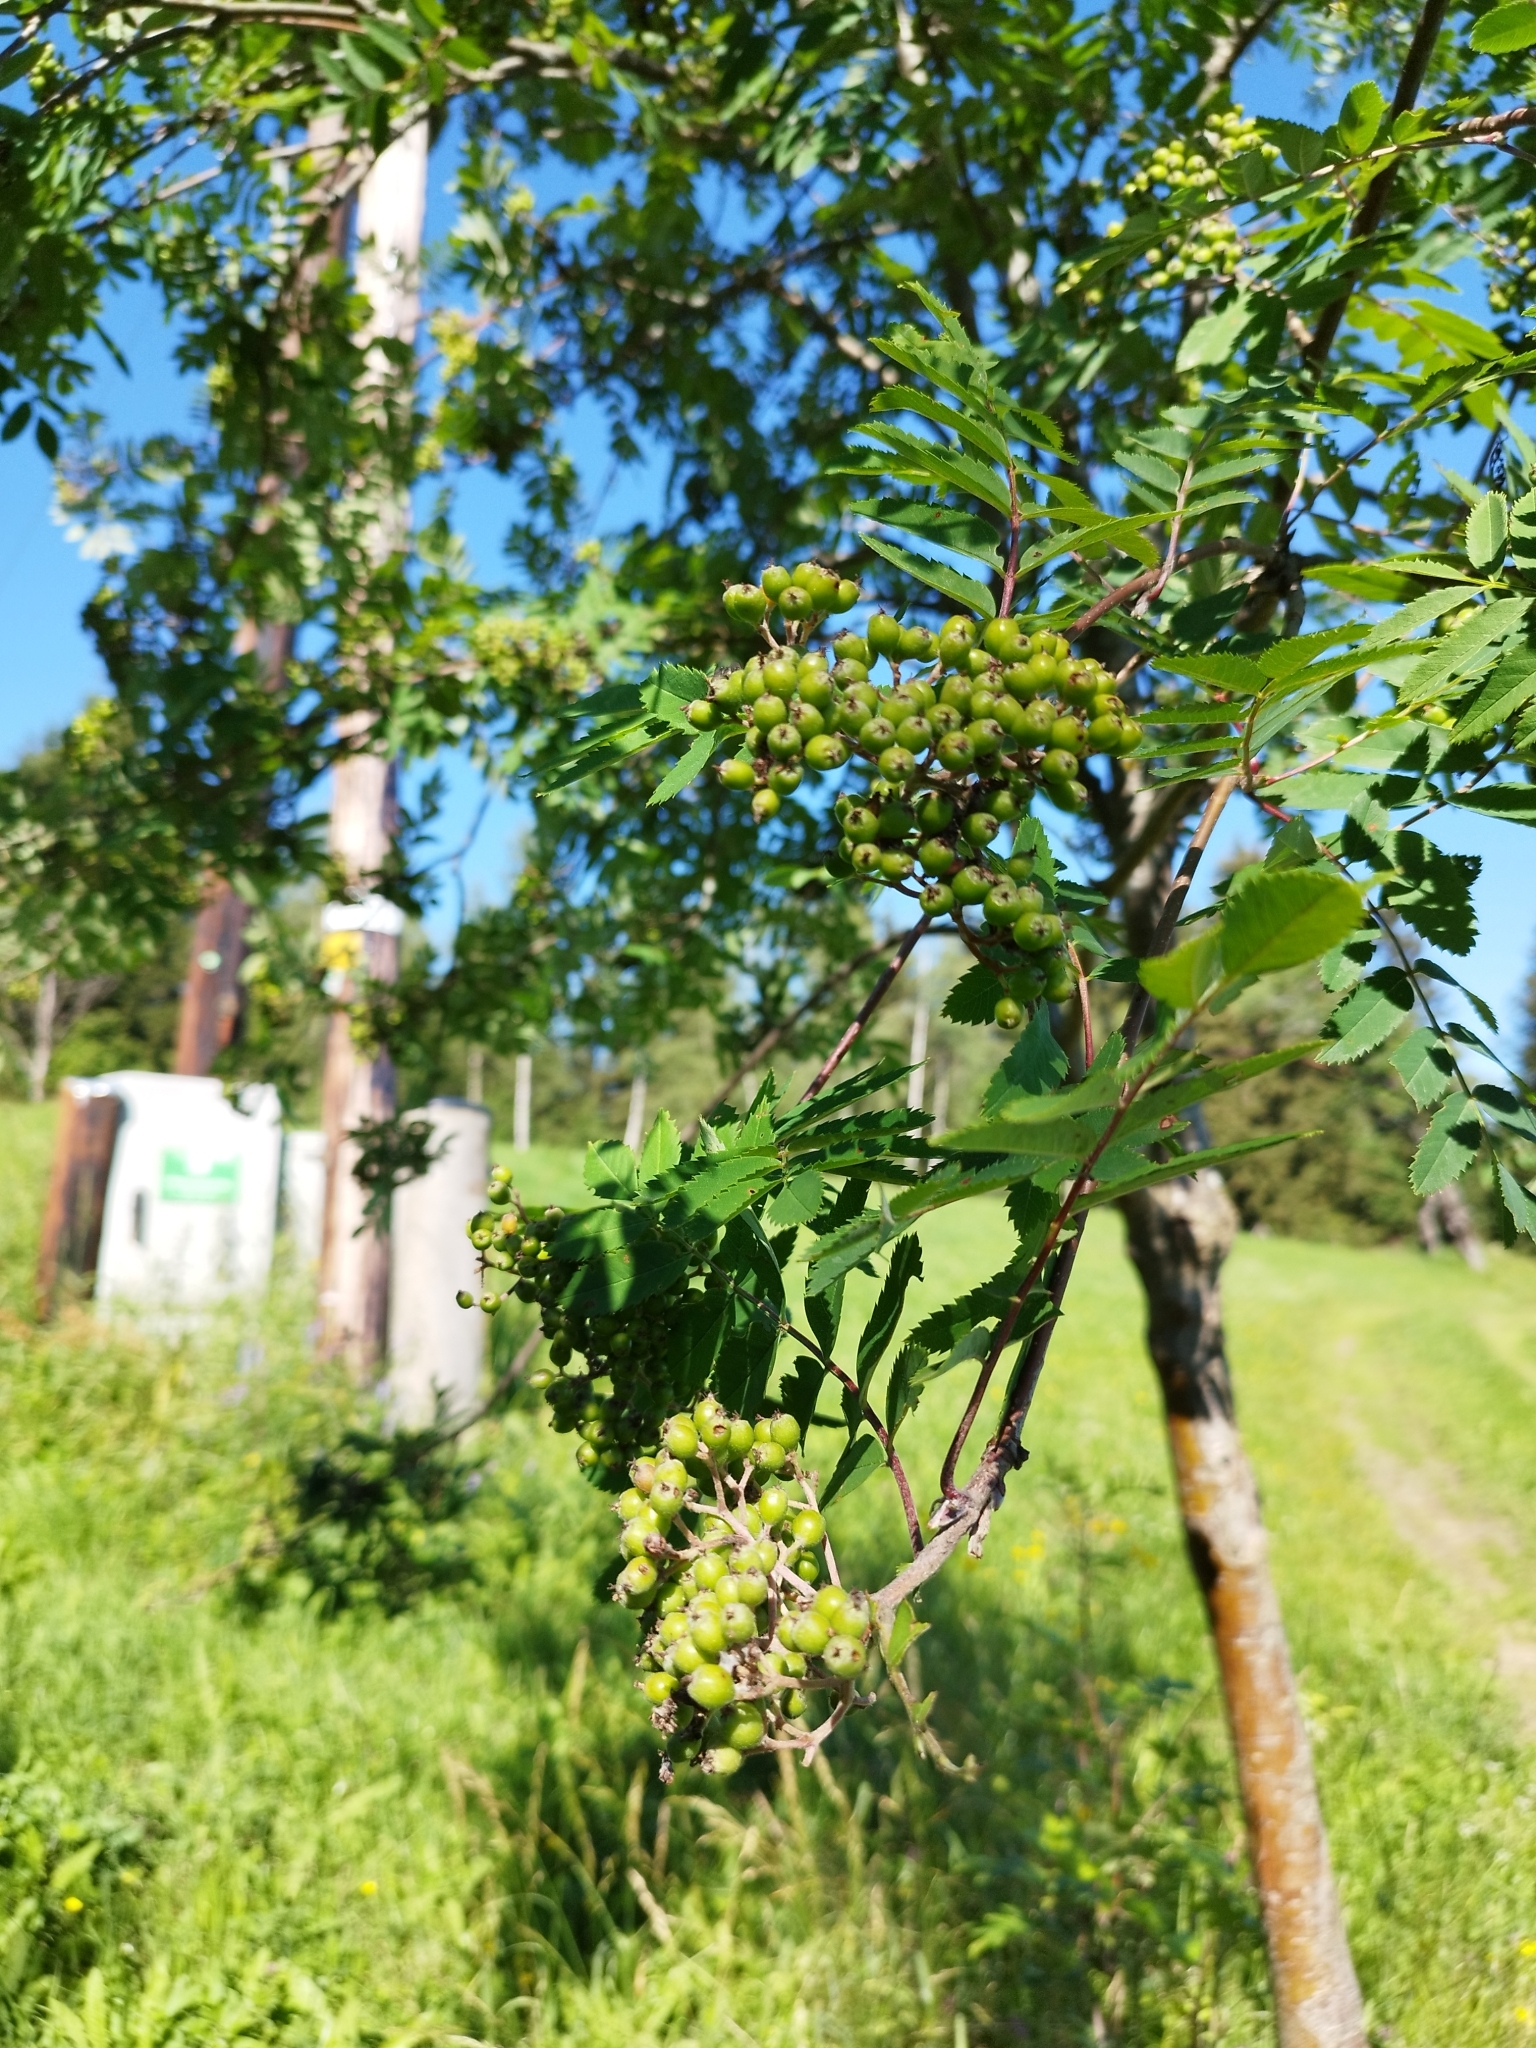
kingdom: Plantae
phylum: Tracheophyta
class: Magnoliopsida
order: Rosales
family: Rosaceae
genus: Sorbus
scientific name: Sorbus aucuparia
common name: Rowan
